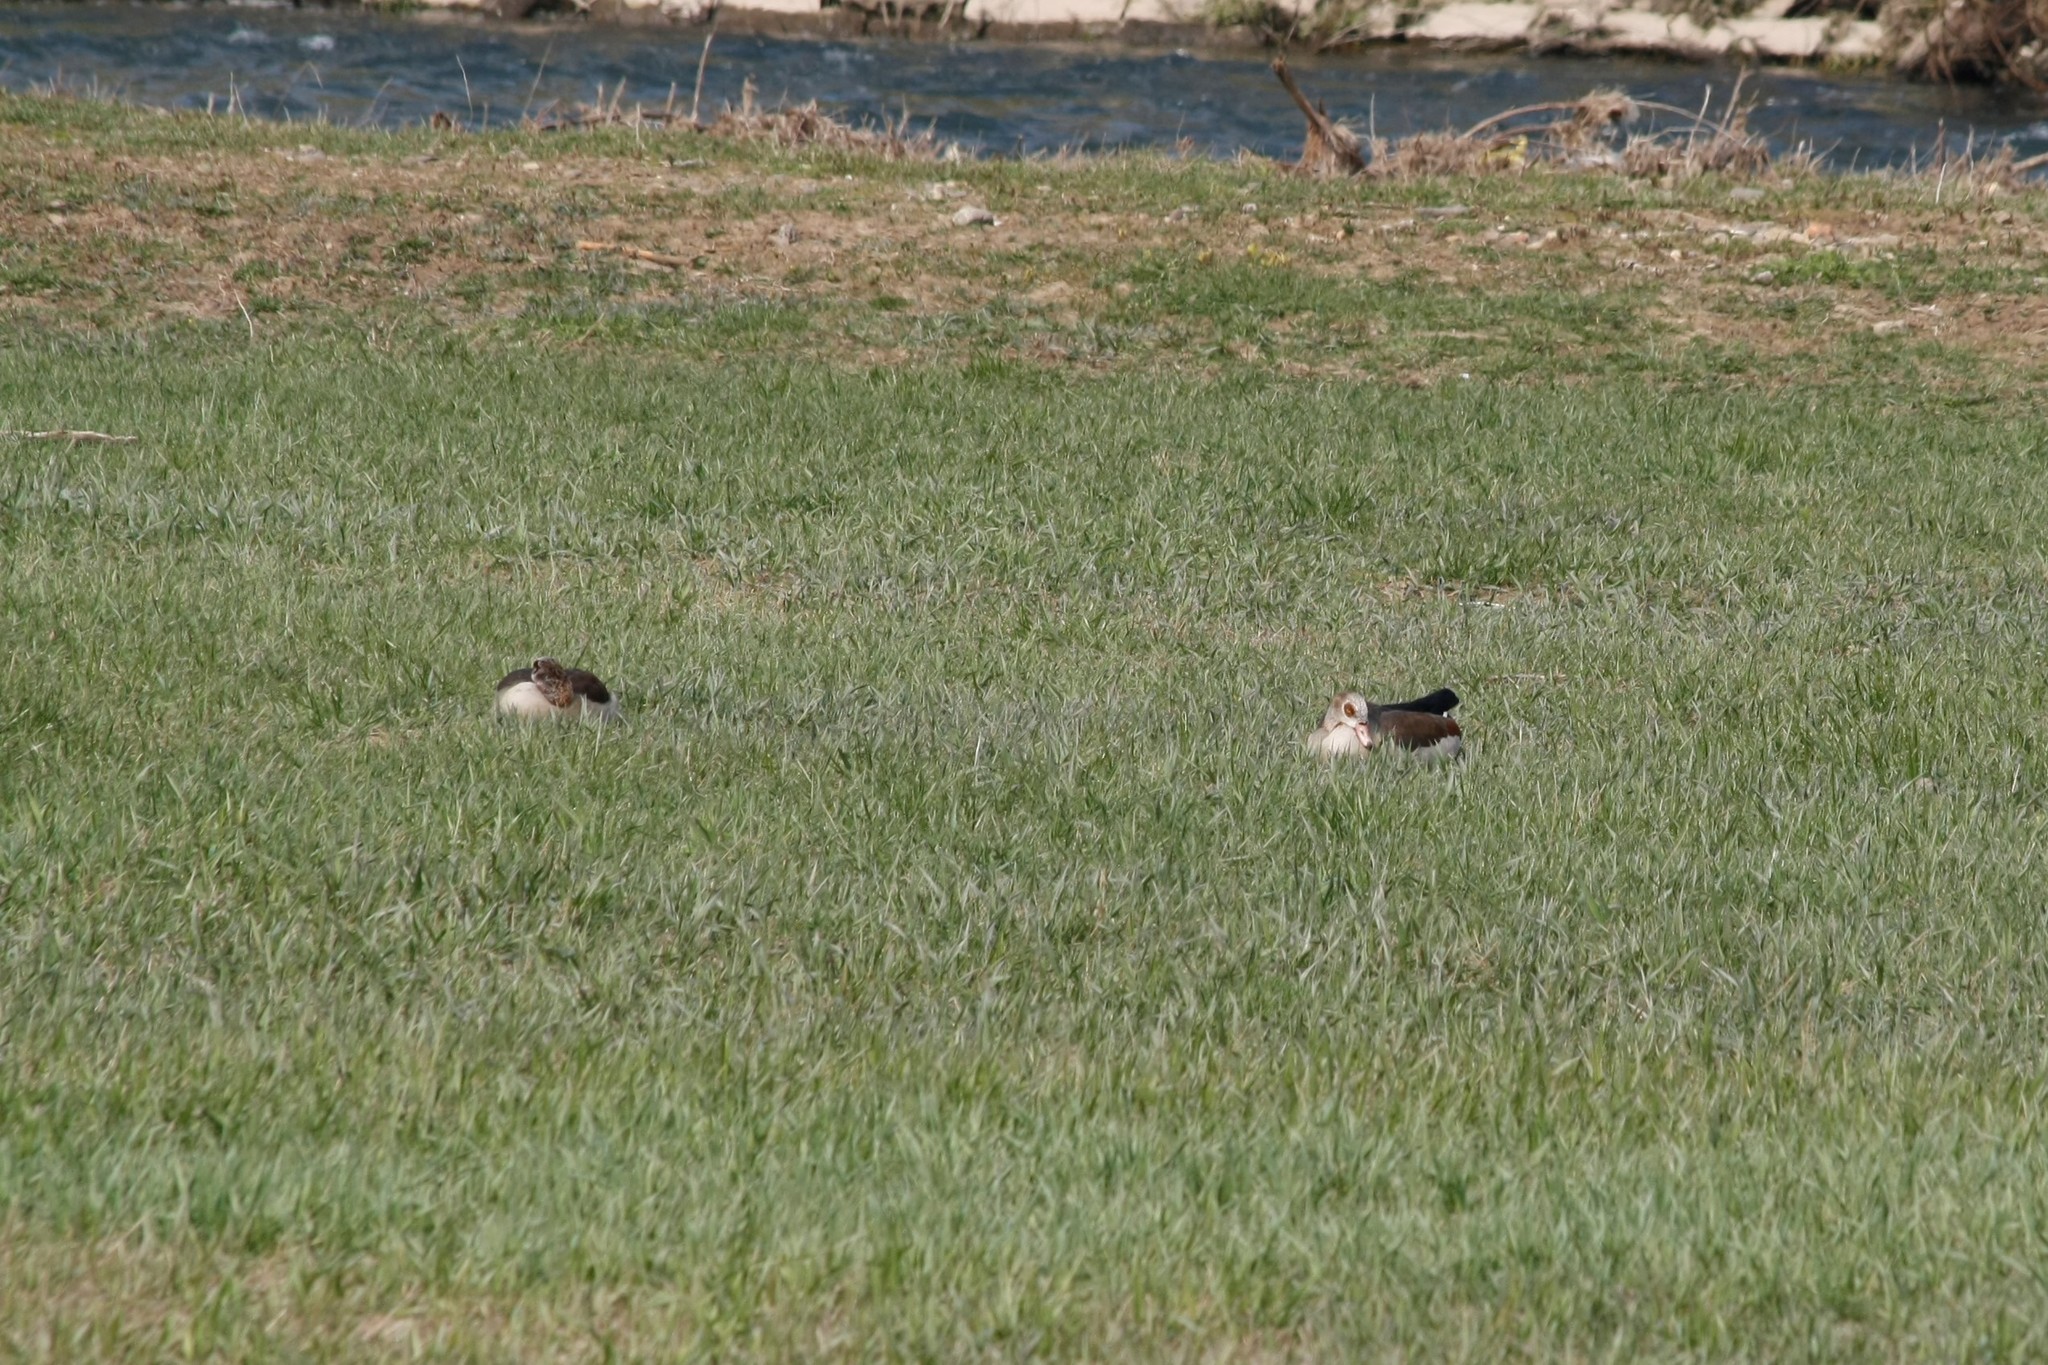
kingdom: Animalia
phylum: Chordata
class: Aves
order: Anseriformes
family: Anatidae
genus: Alopochen
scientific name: Alopochen aegyptiaca
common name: Egyptian goose
